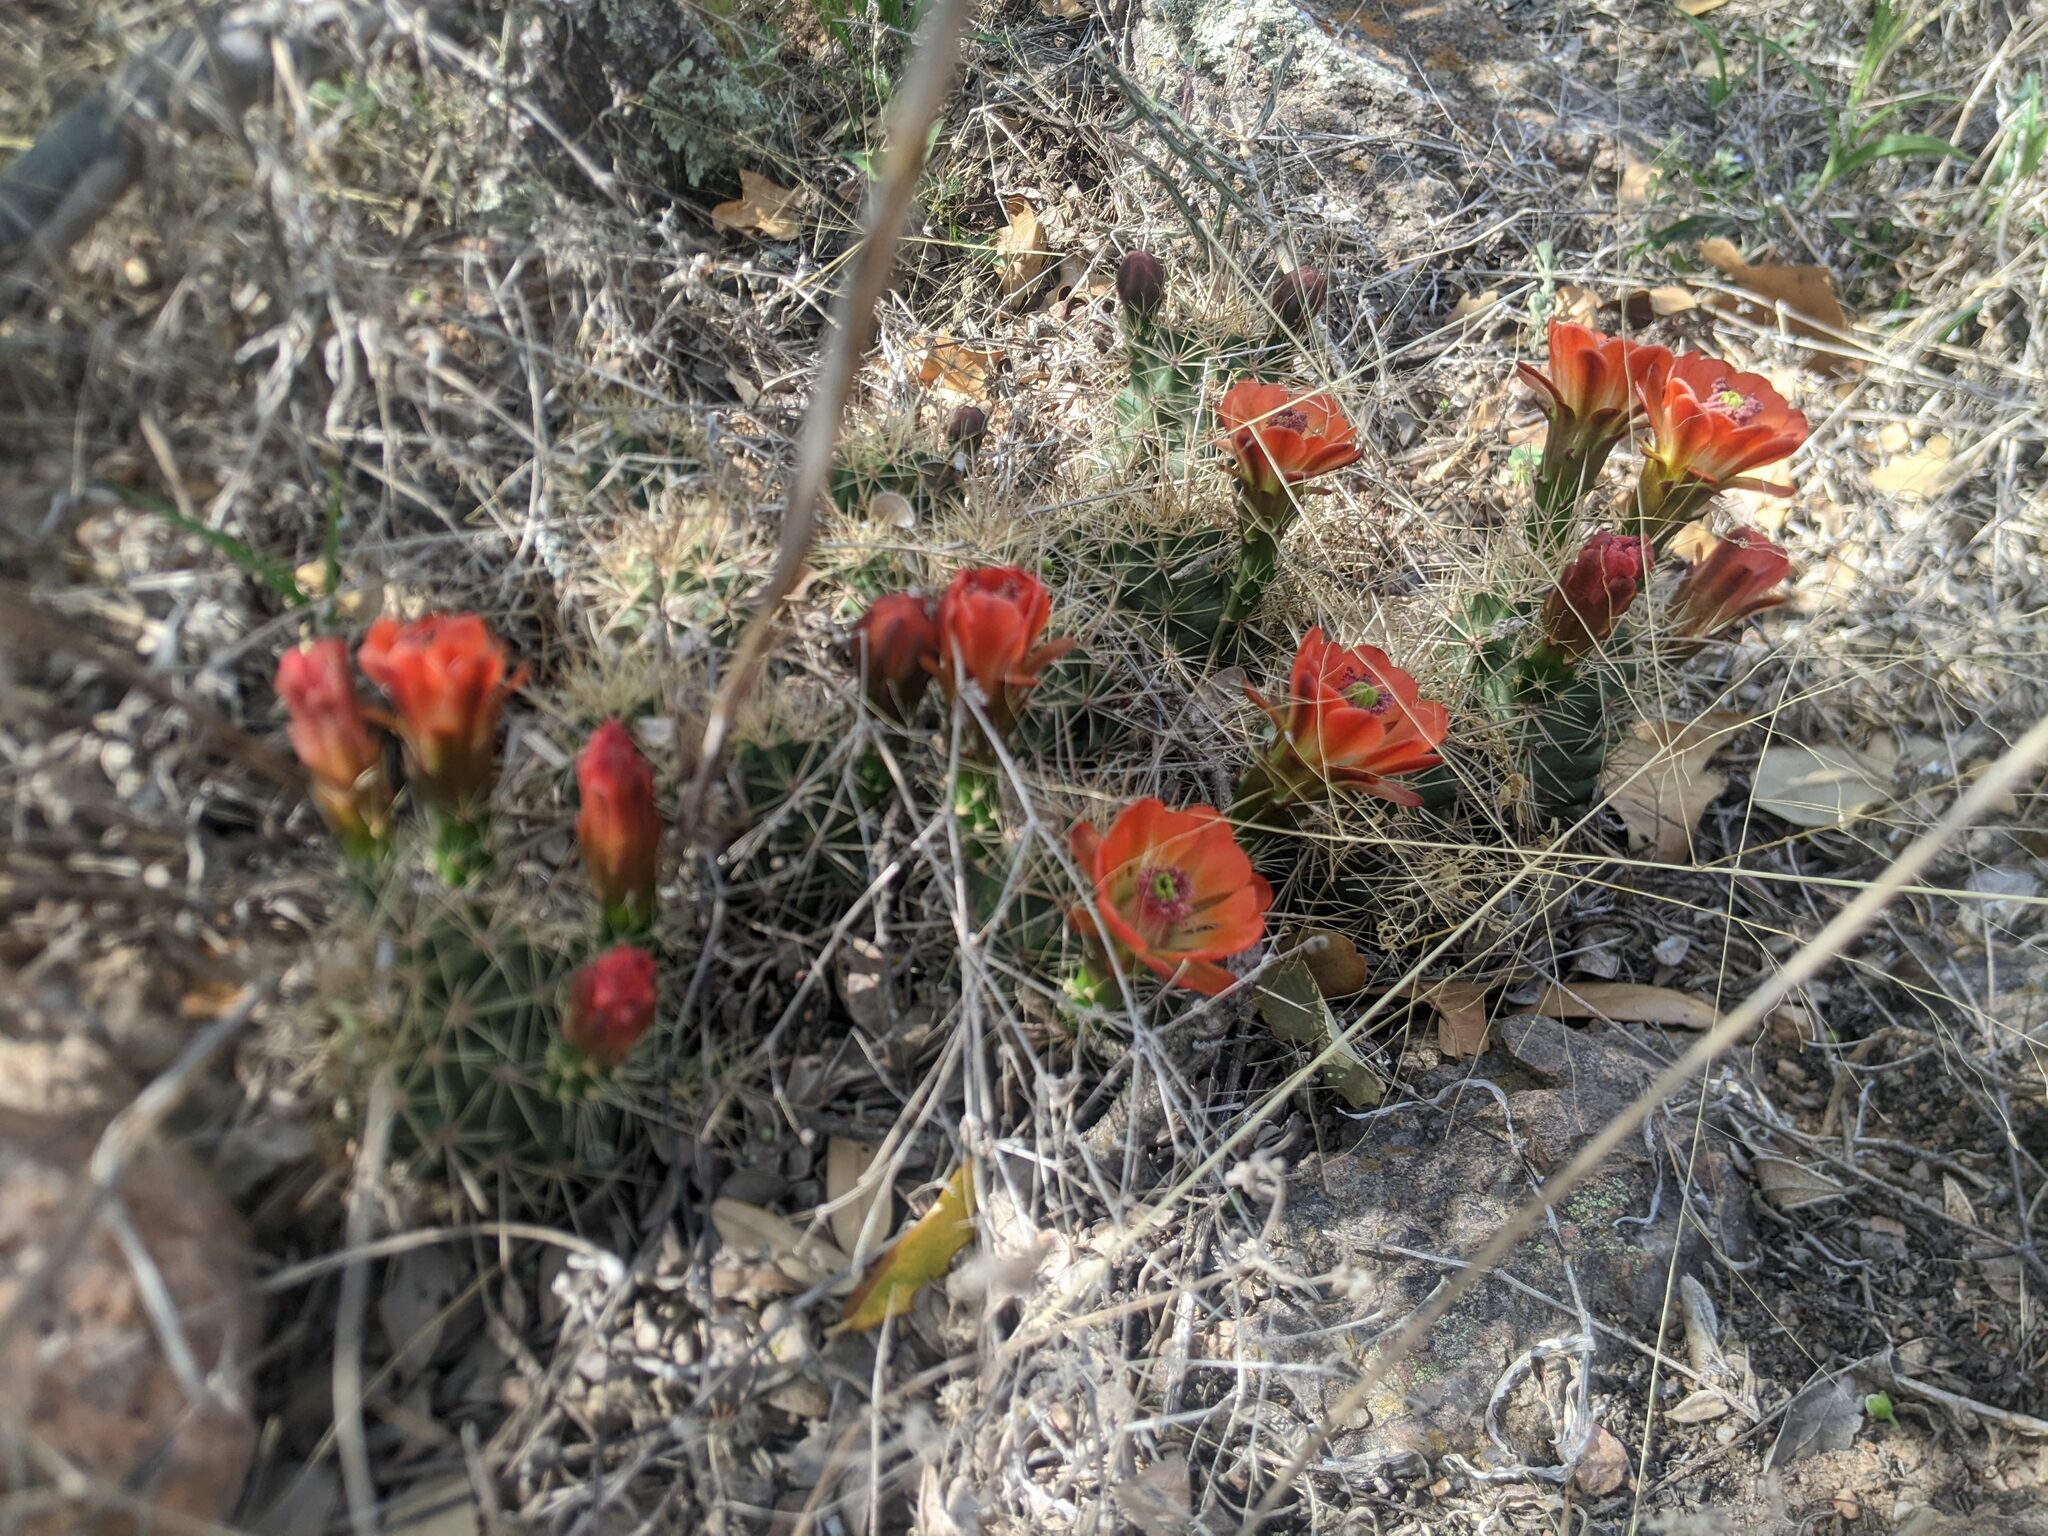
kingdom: Plantae
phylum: Tracheophyta
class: Magnoliopsida
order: Caryophyllales
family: Cactaceae
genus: Echinocereus
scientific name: Echinocereus coccineus
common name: Scarlet hedgehog cactus
